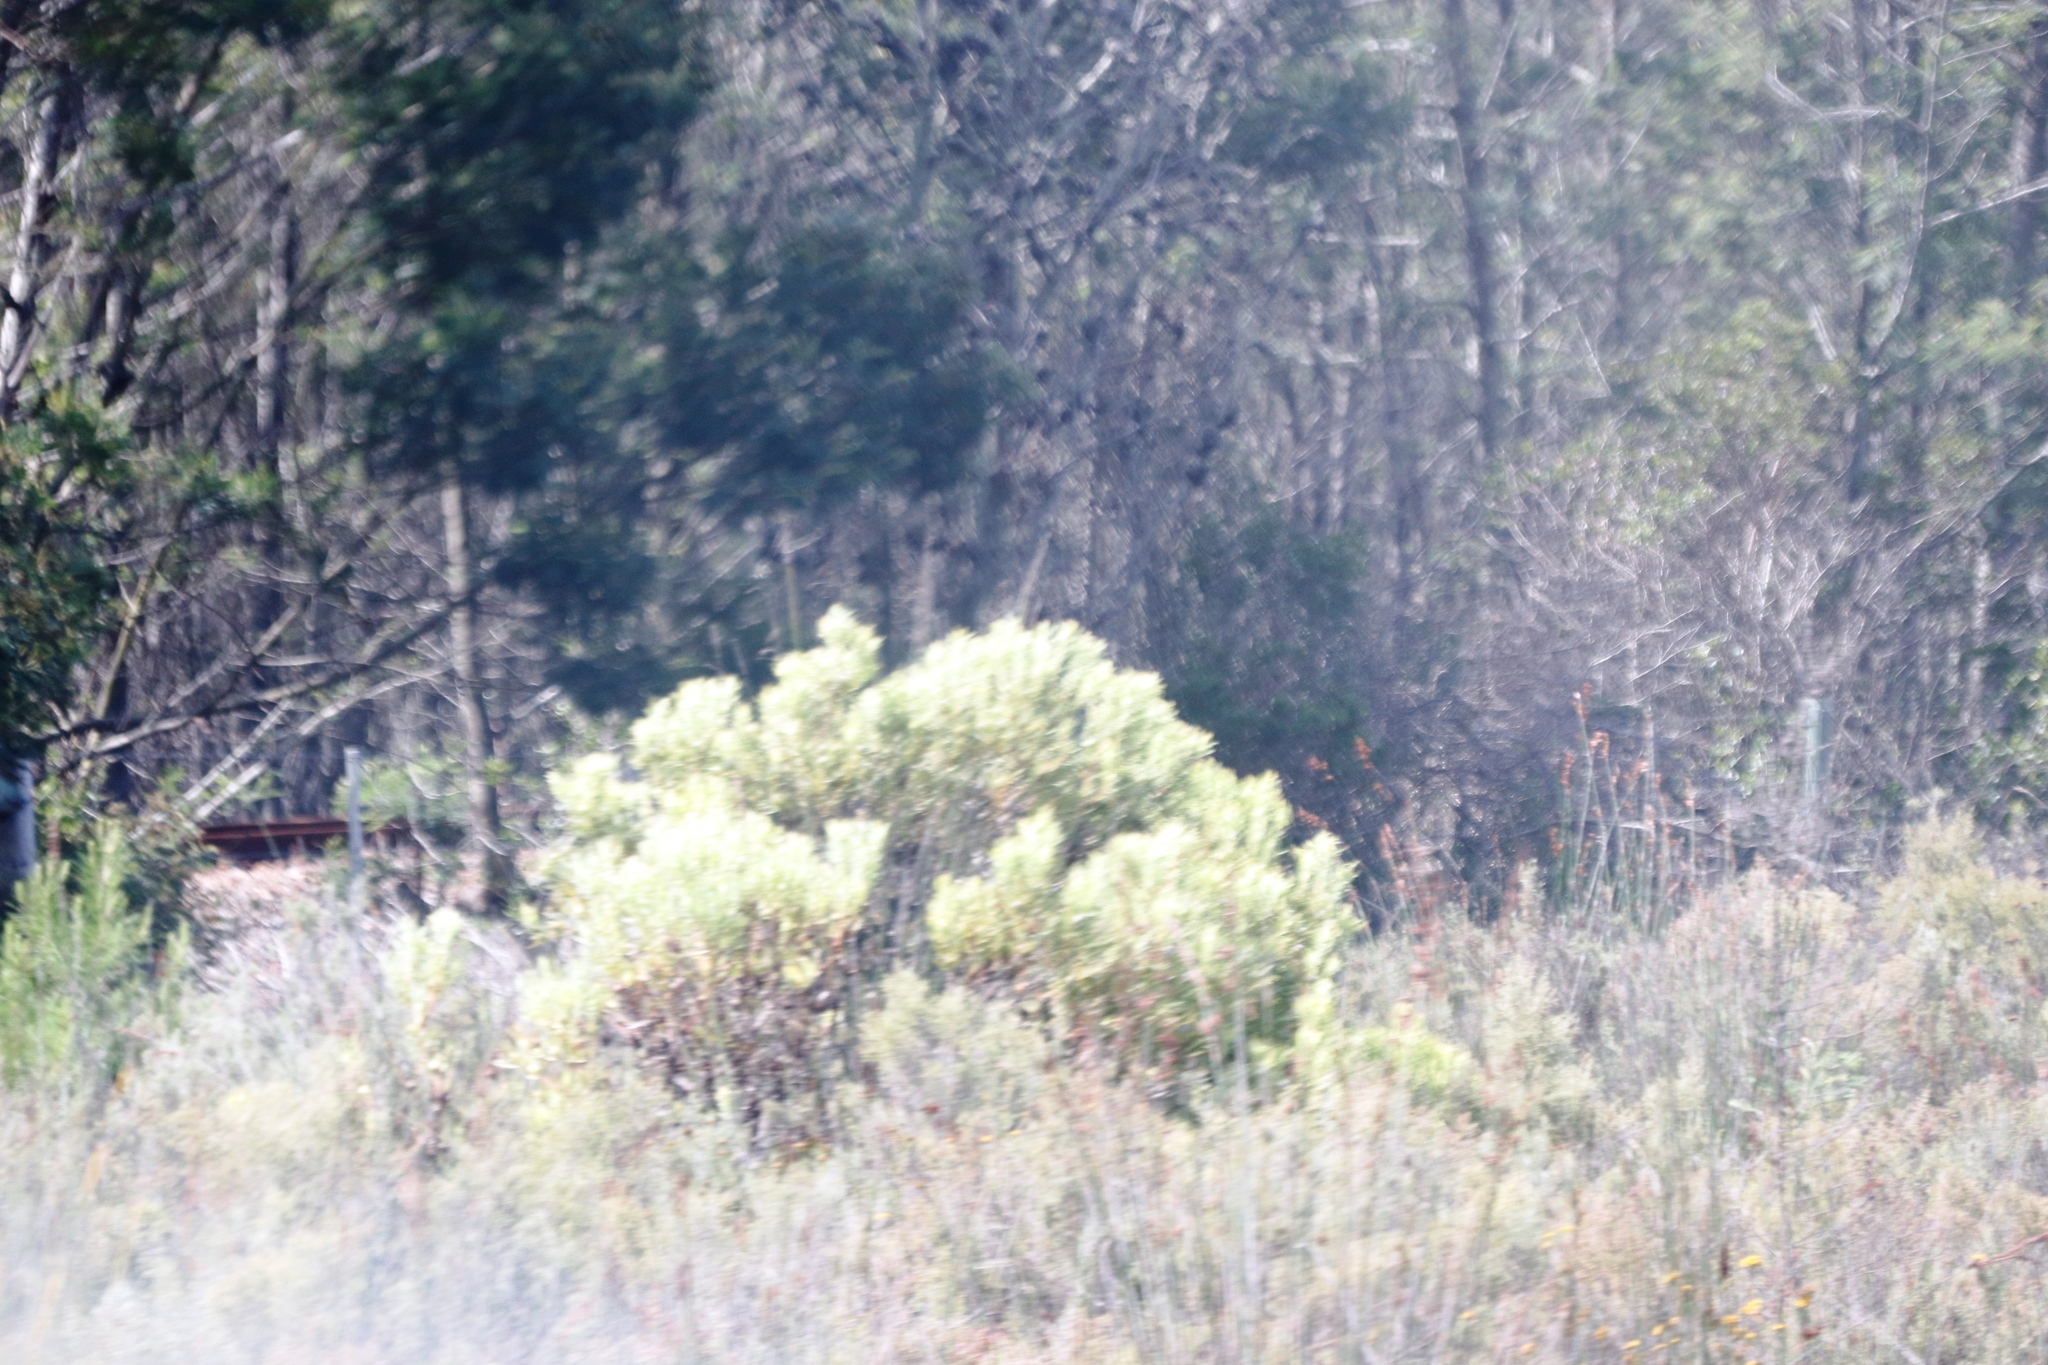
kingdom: Plantae
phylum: Tracheophyta
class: Magnoliopsida
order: Proteales
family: Proteaceae
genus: Leucadendron
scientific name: Leucadendron galpinii
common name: Hairless conebush
